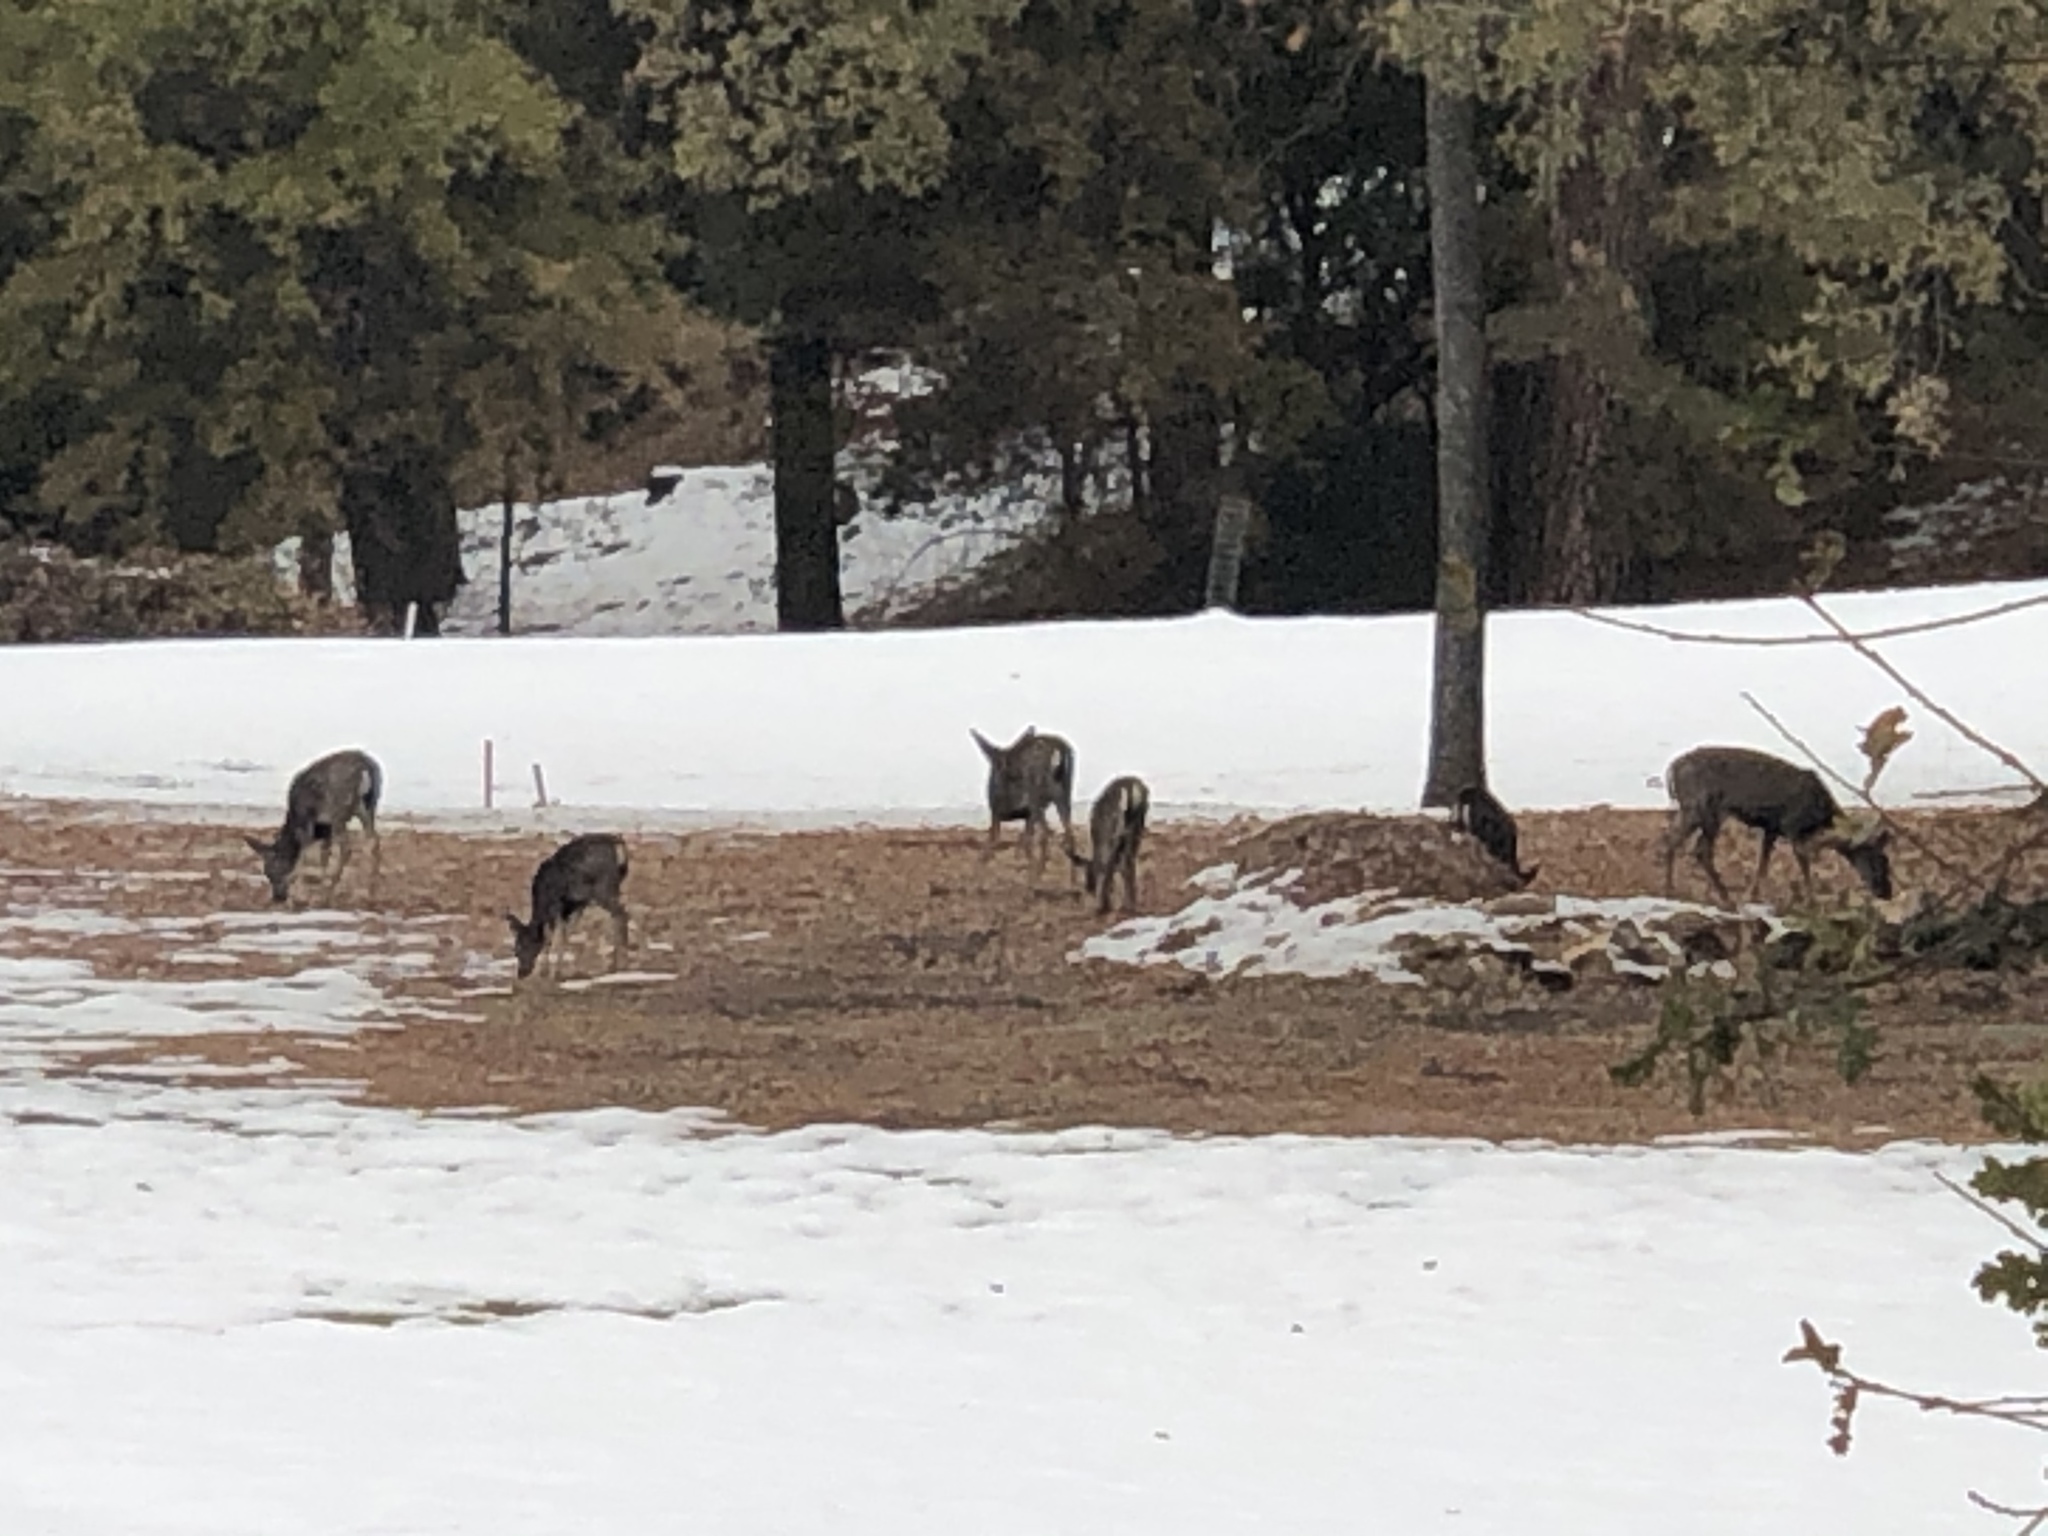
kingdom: Animalia
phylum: Chordata
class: Mammalia
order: Artiodactyla
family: Cervidae
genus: Odocoileus
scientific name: Odocoileus hemionus
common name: Mule deer
